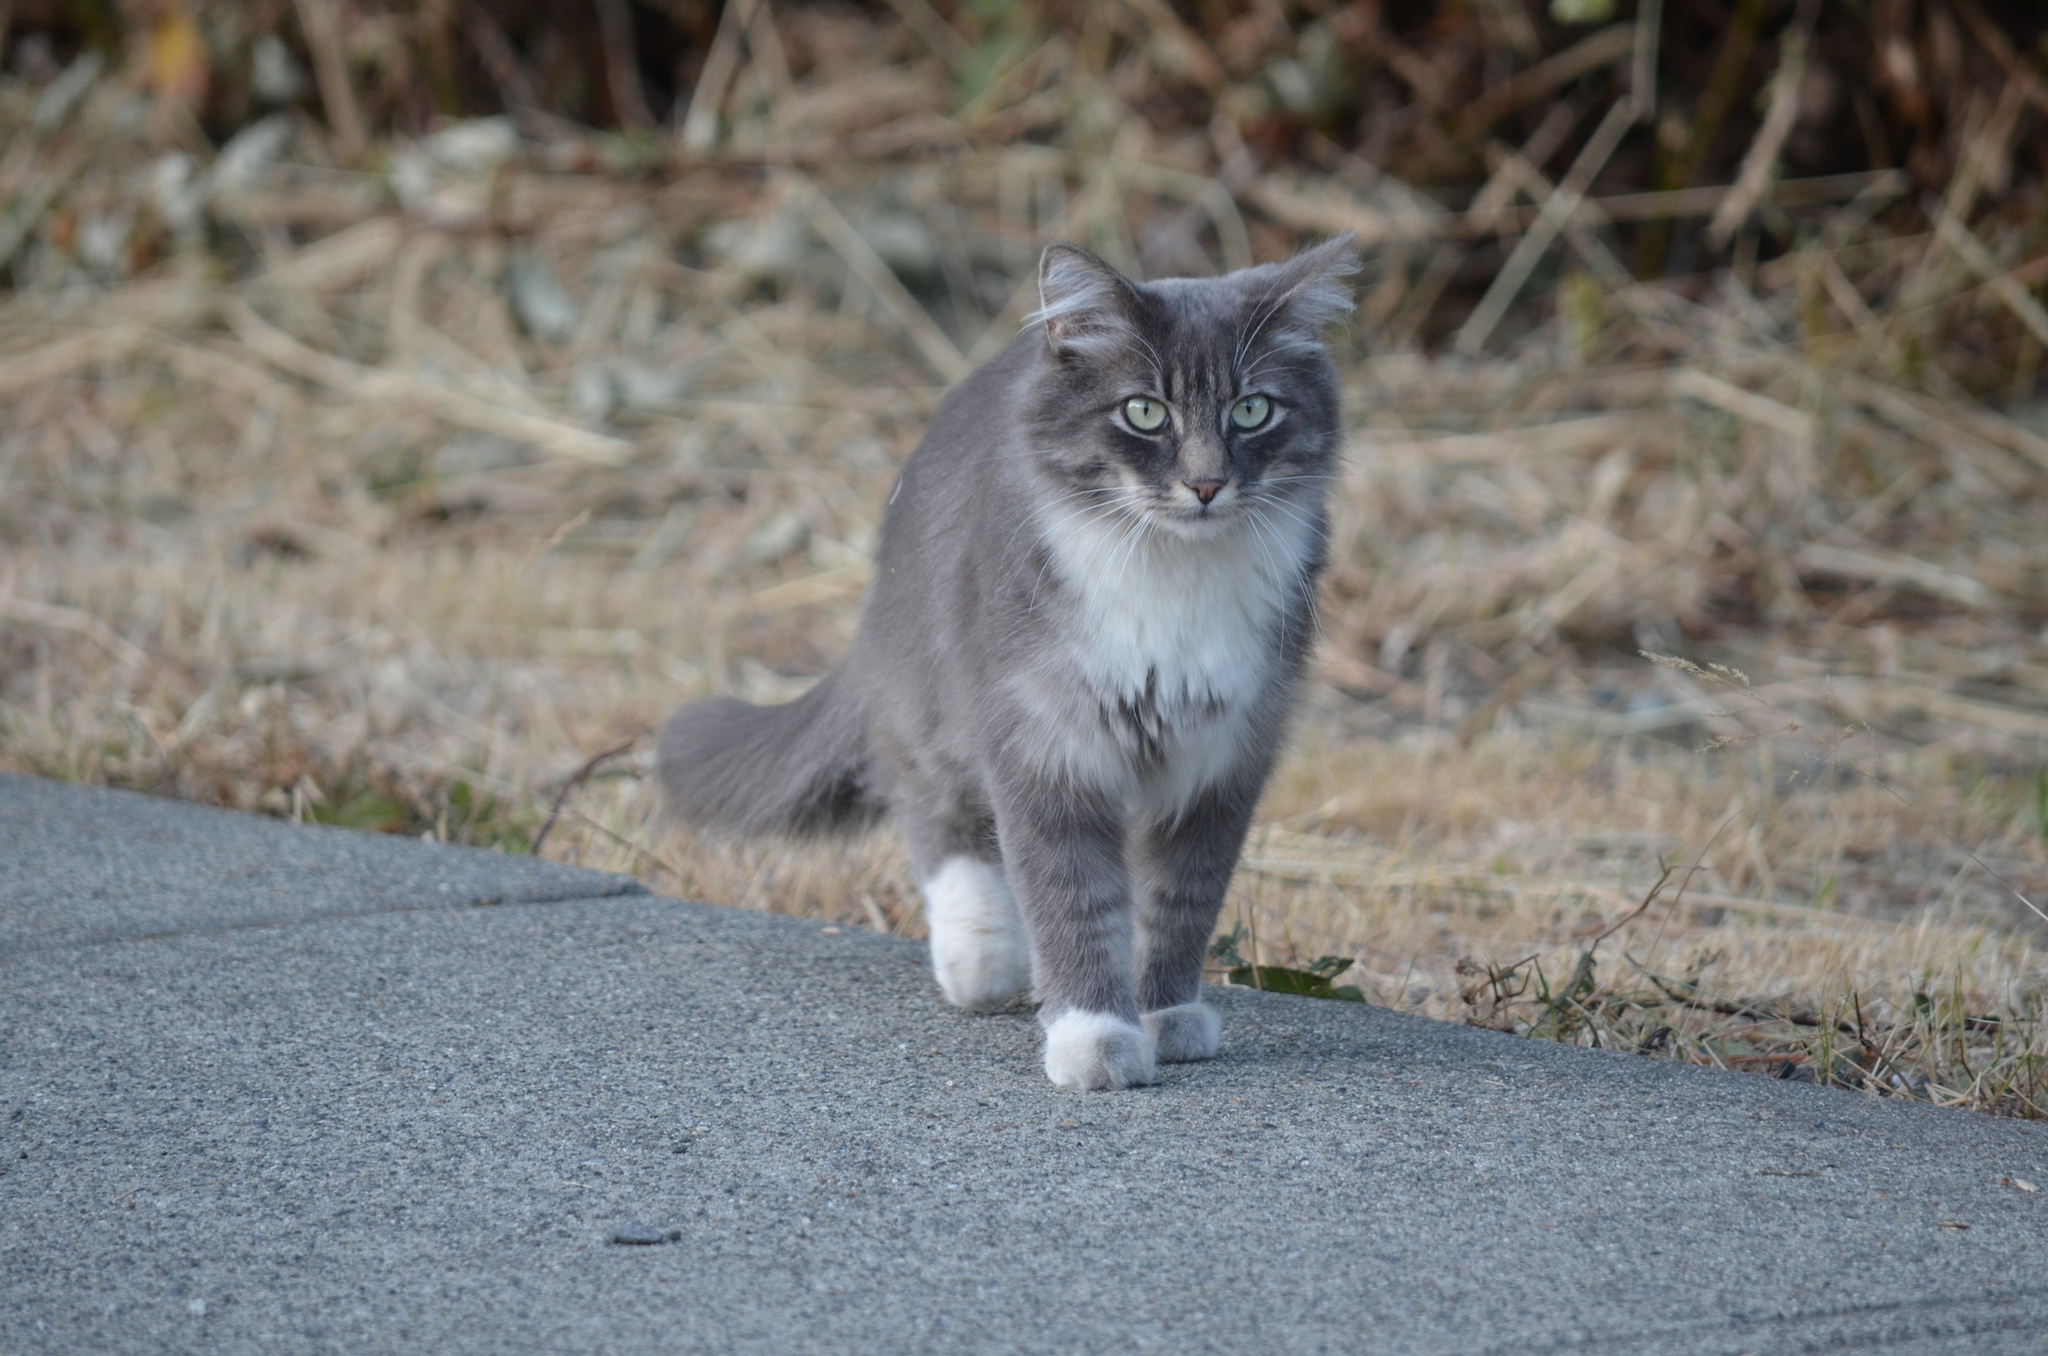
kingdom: Animalia
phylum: Chordata
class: Mammalia
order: Carnivora
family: Felidae
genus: Felis
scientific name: Felis catus
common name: Domestic cat
